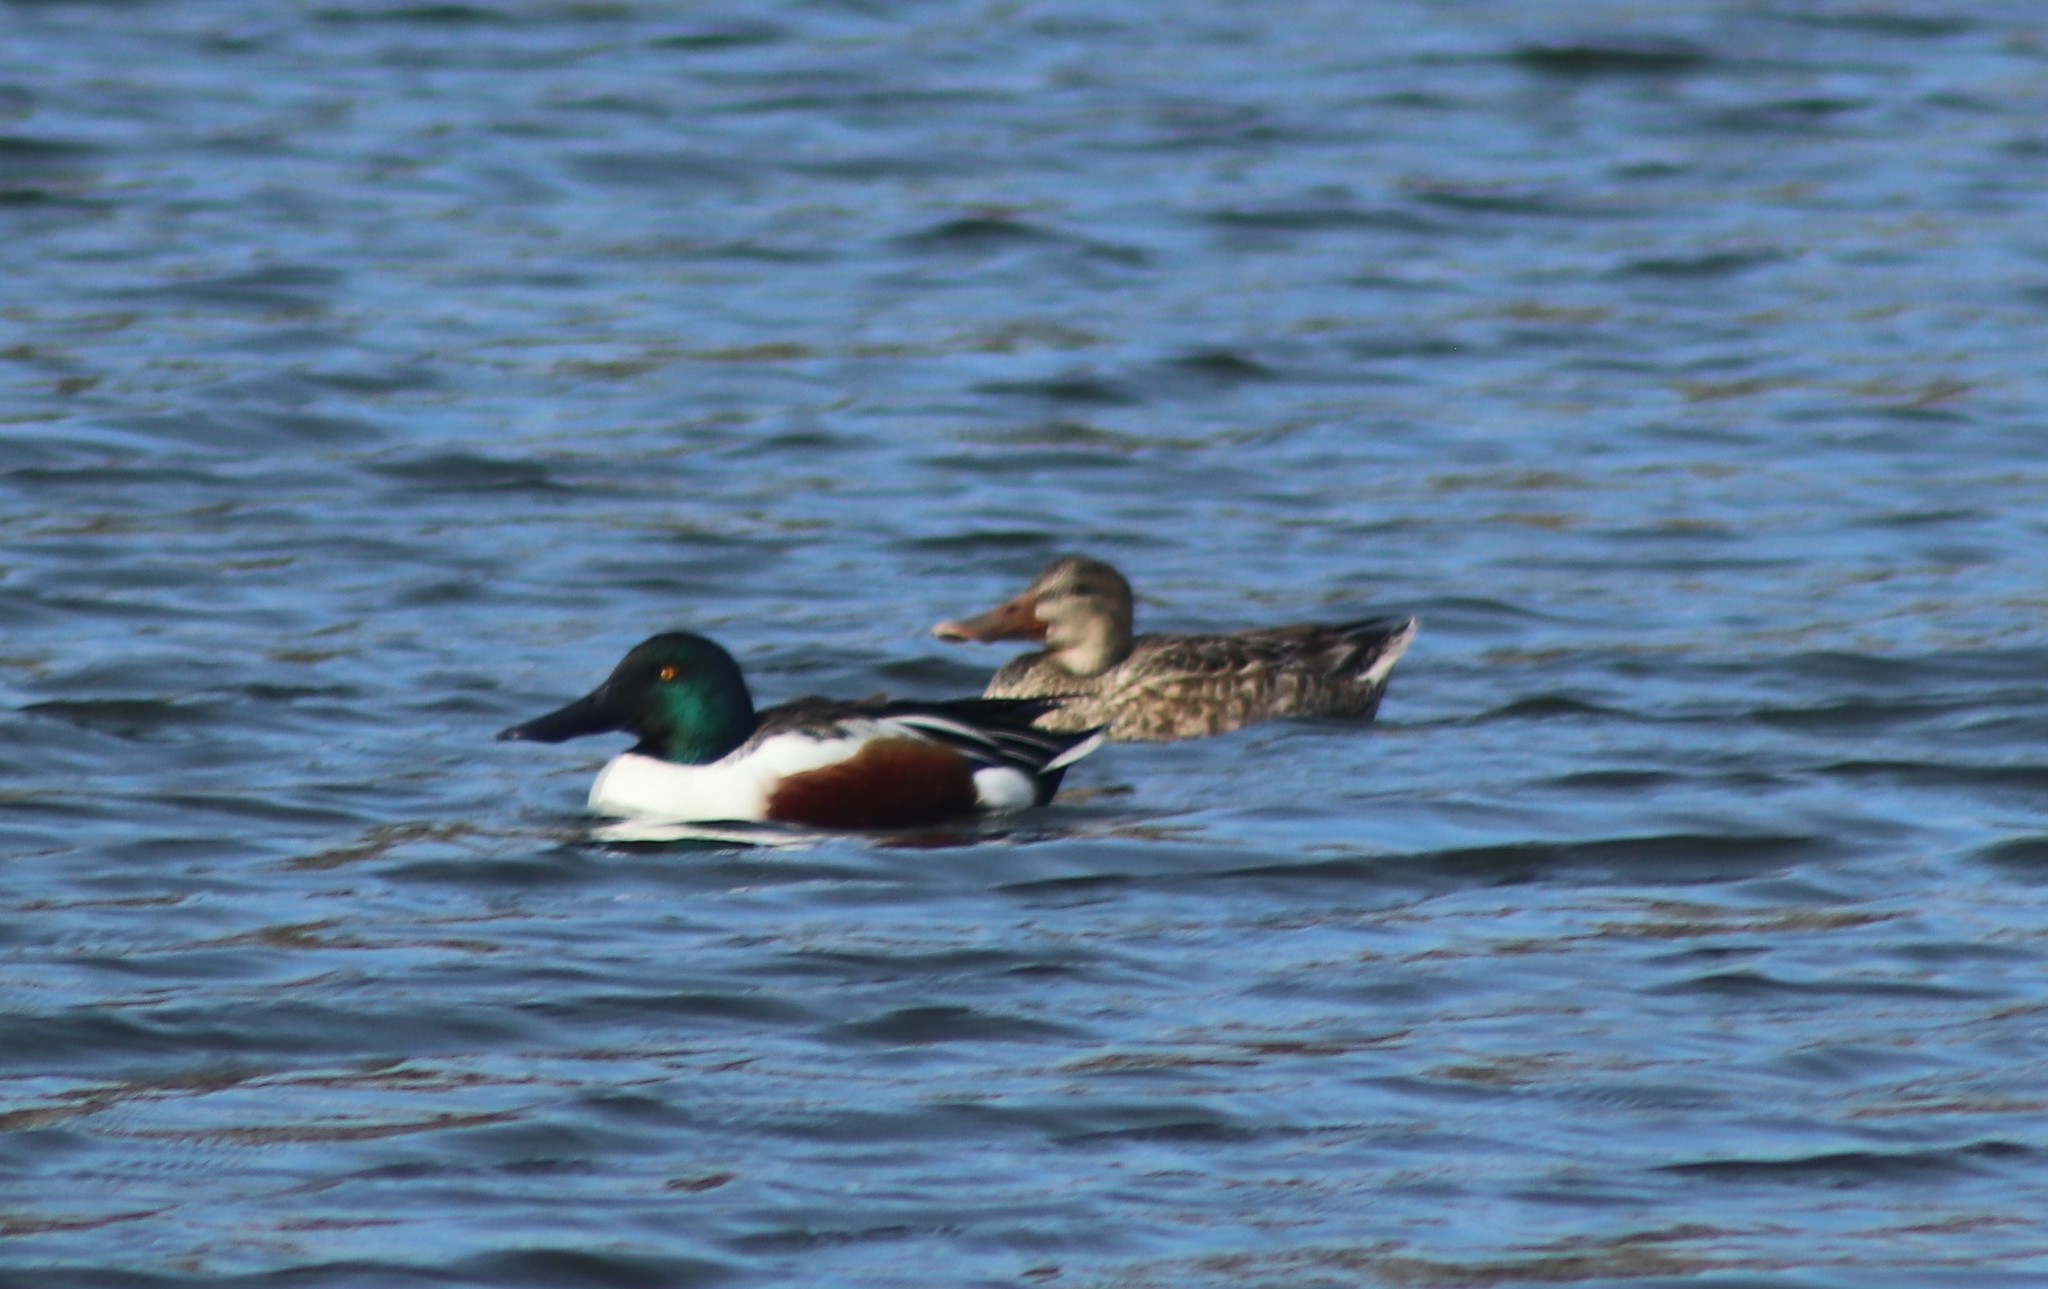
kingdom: Animalia
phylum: Chordata
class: Aves
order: Anseriformes
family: Anatidae
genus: Spatula
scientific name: Spatula clypeata
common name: Northern shoveler
